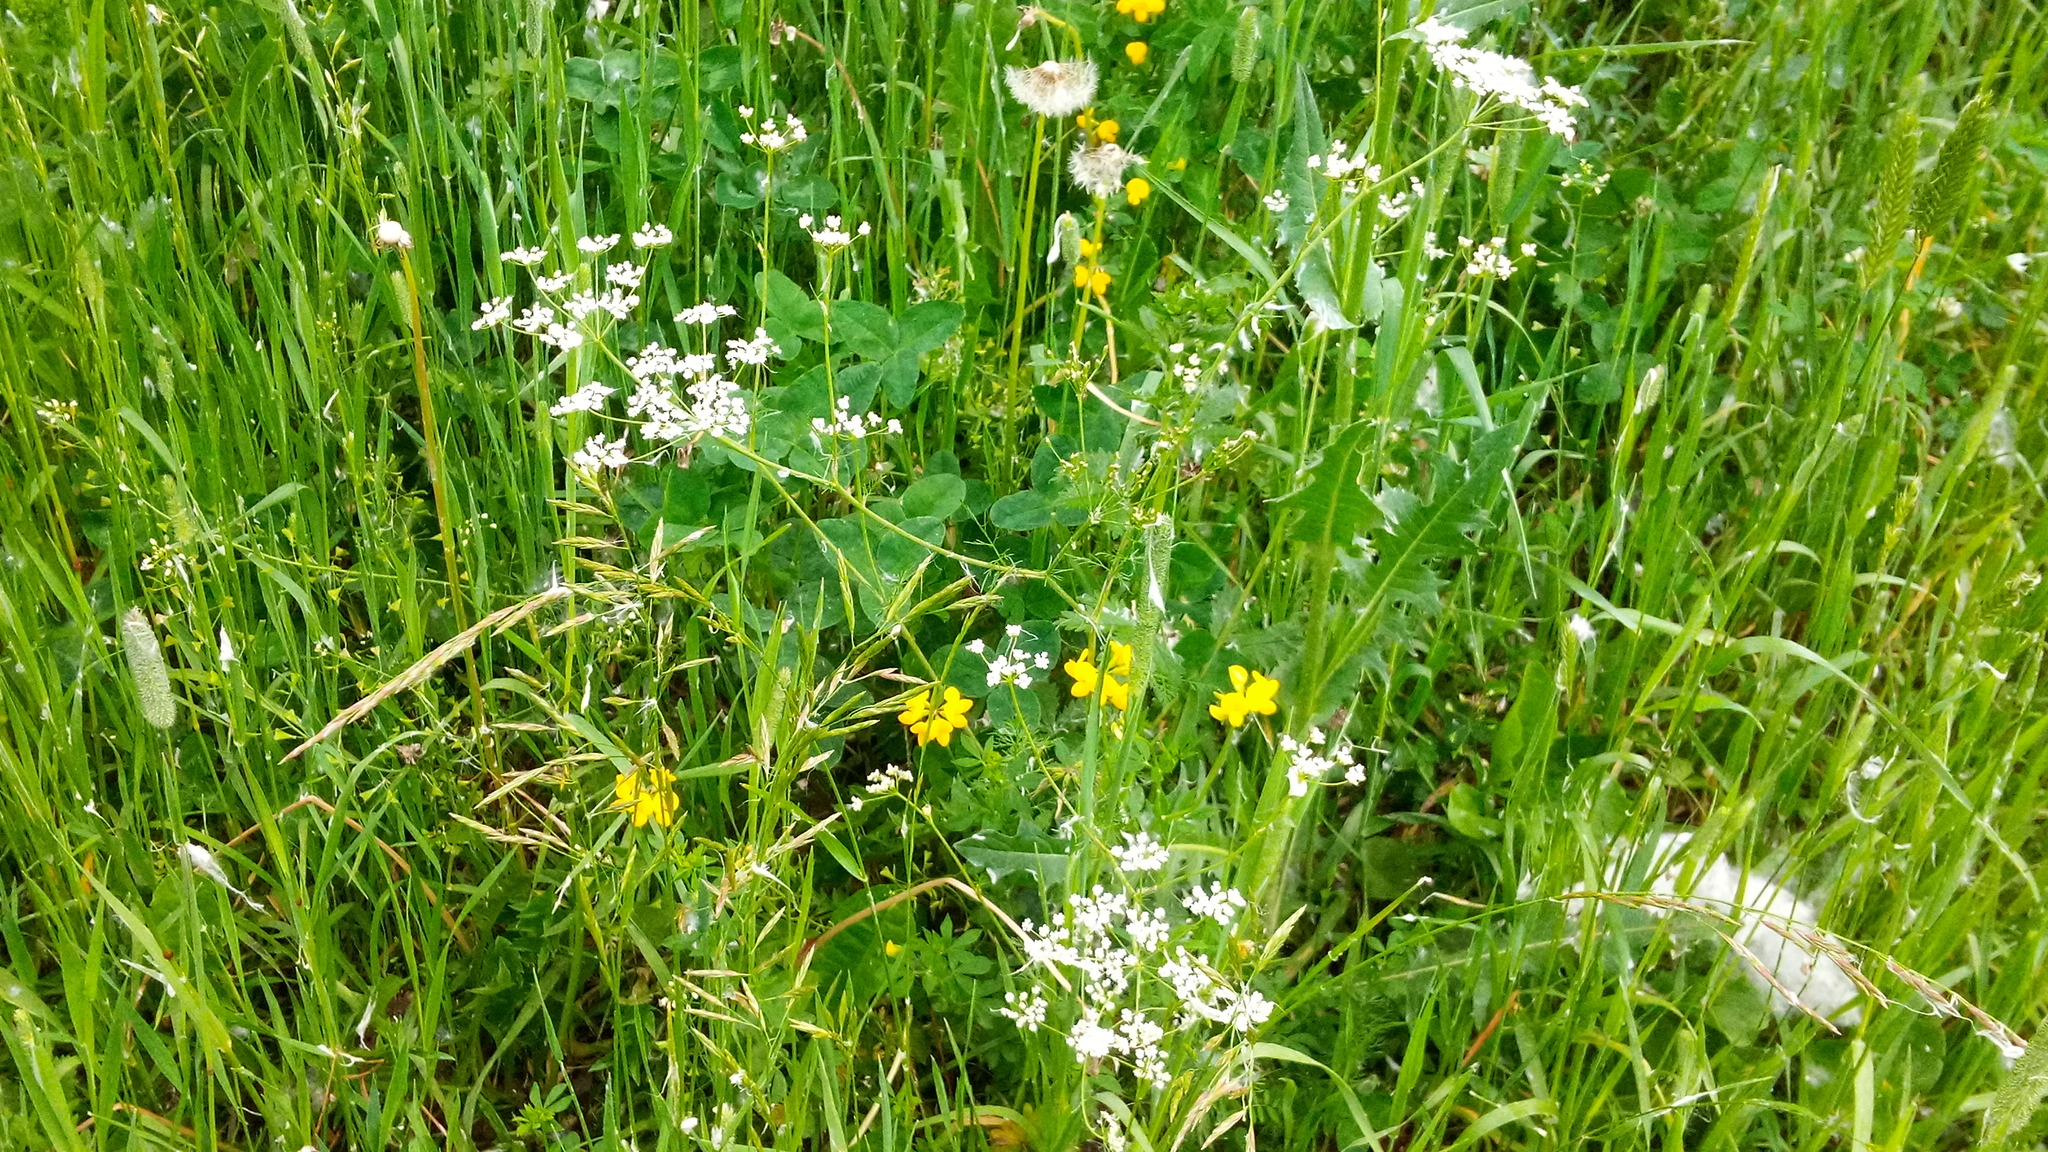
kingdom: Plantae
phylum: Tracheophyta
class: Magnoliopsida
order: Apiales
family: Apiaceae
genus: Carum
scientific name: Carum carvi
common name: Caraway
